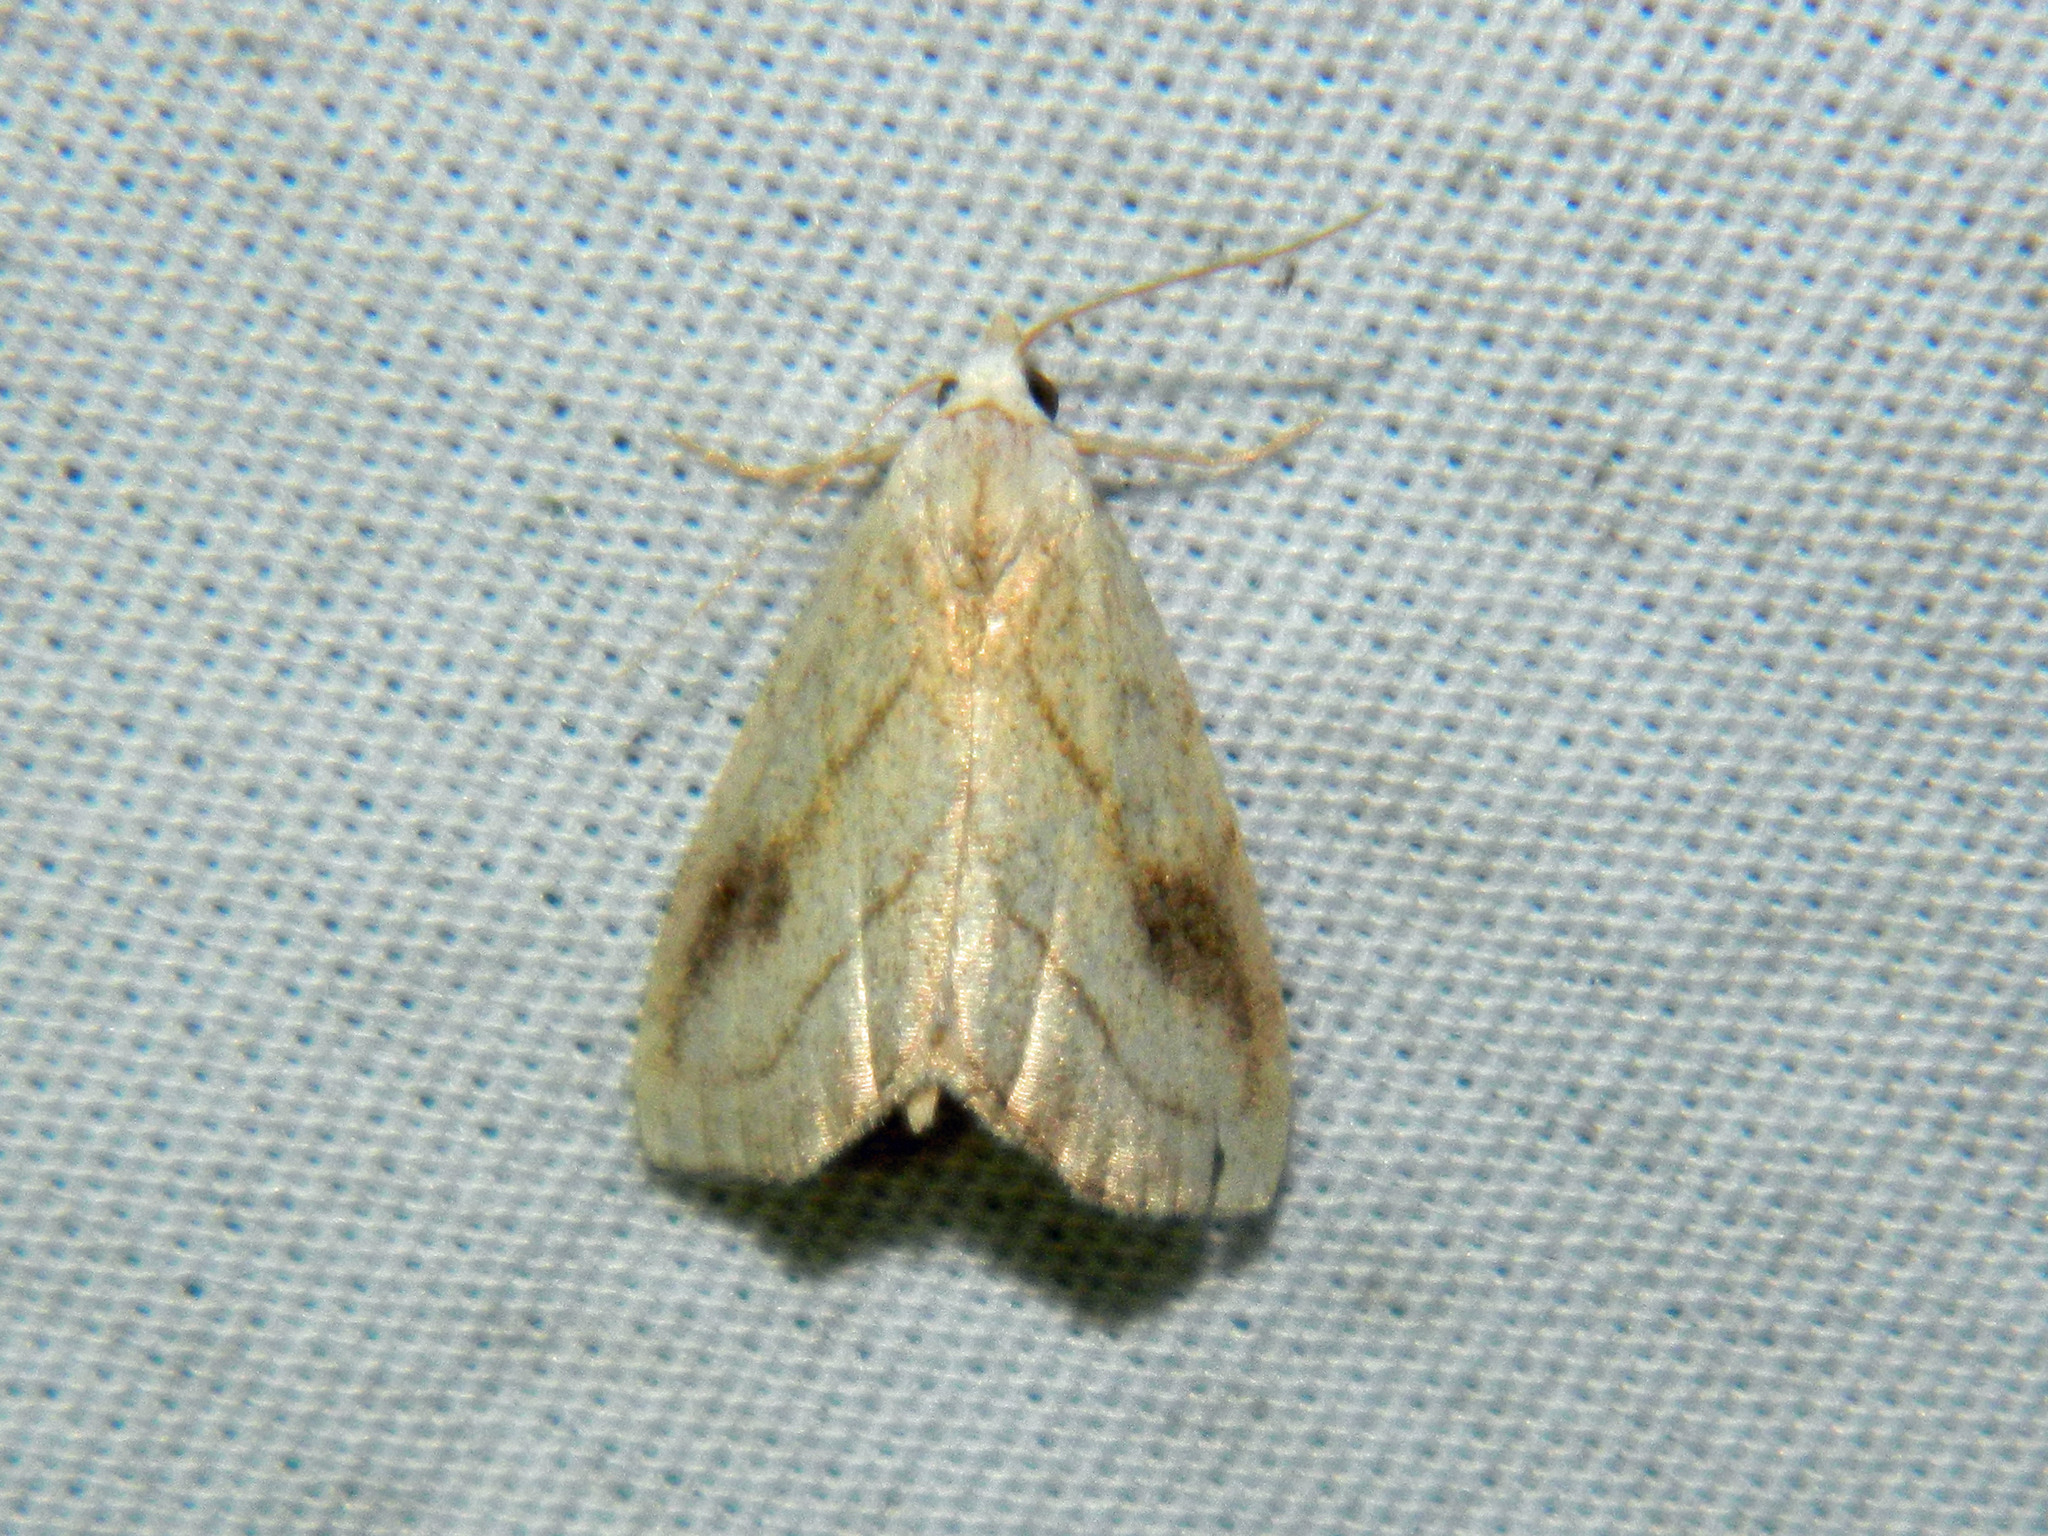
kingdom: Animalia
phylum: Arthropoda
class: Insecta
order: Lepidoptera
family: Erebidae
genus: Rivula
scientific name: Rivula propinqualis
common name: Spotted grass moth
